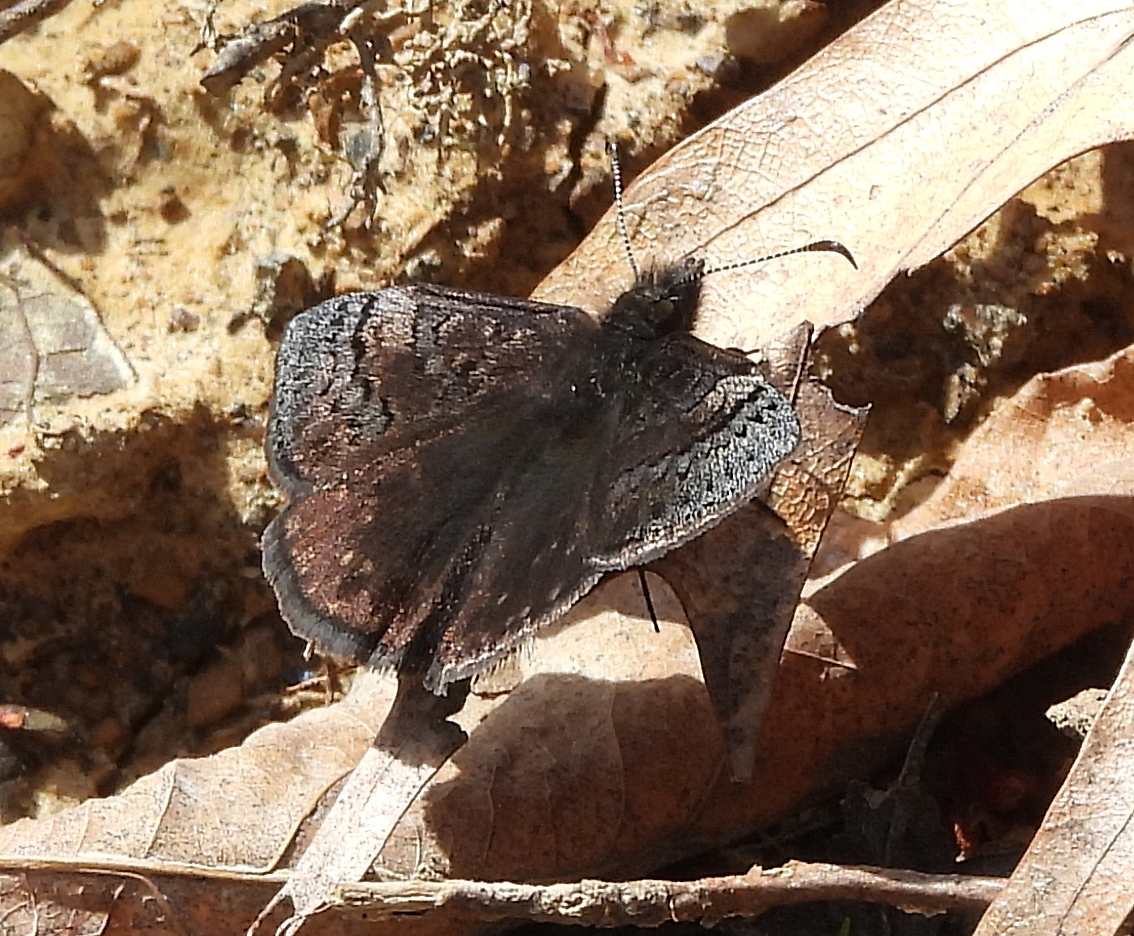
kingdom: Animalia
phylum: Arthropoda
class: Insecta
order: Lepidoptera
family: Hesperiidae
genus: Erynnis
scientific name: Erynnis brizo
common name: Sleepy duskywing
